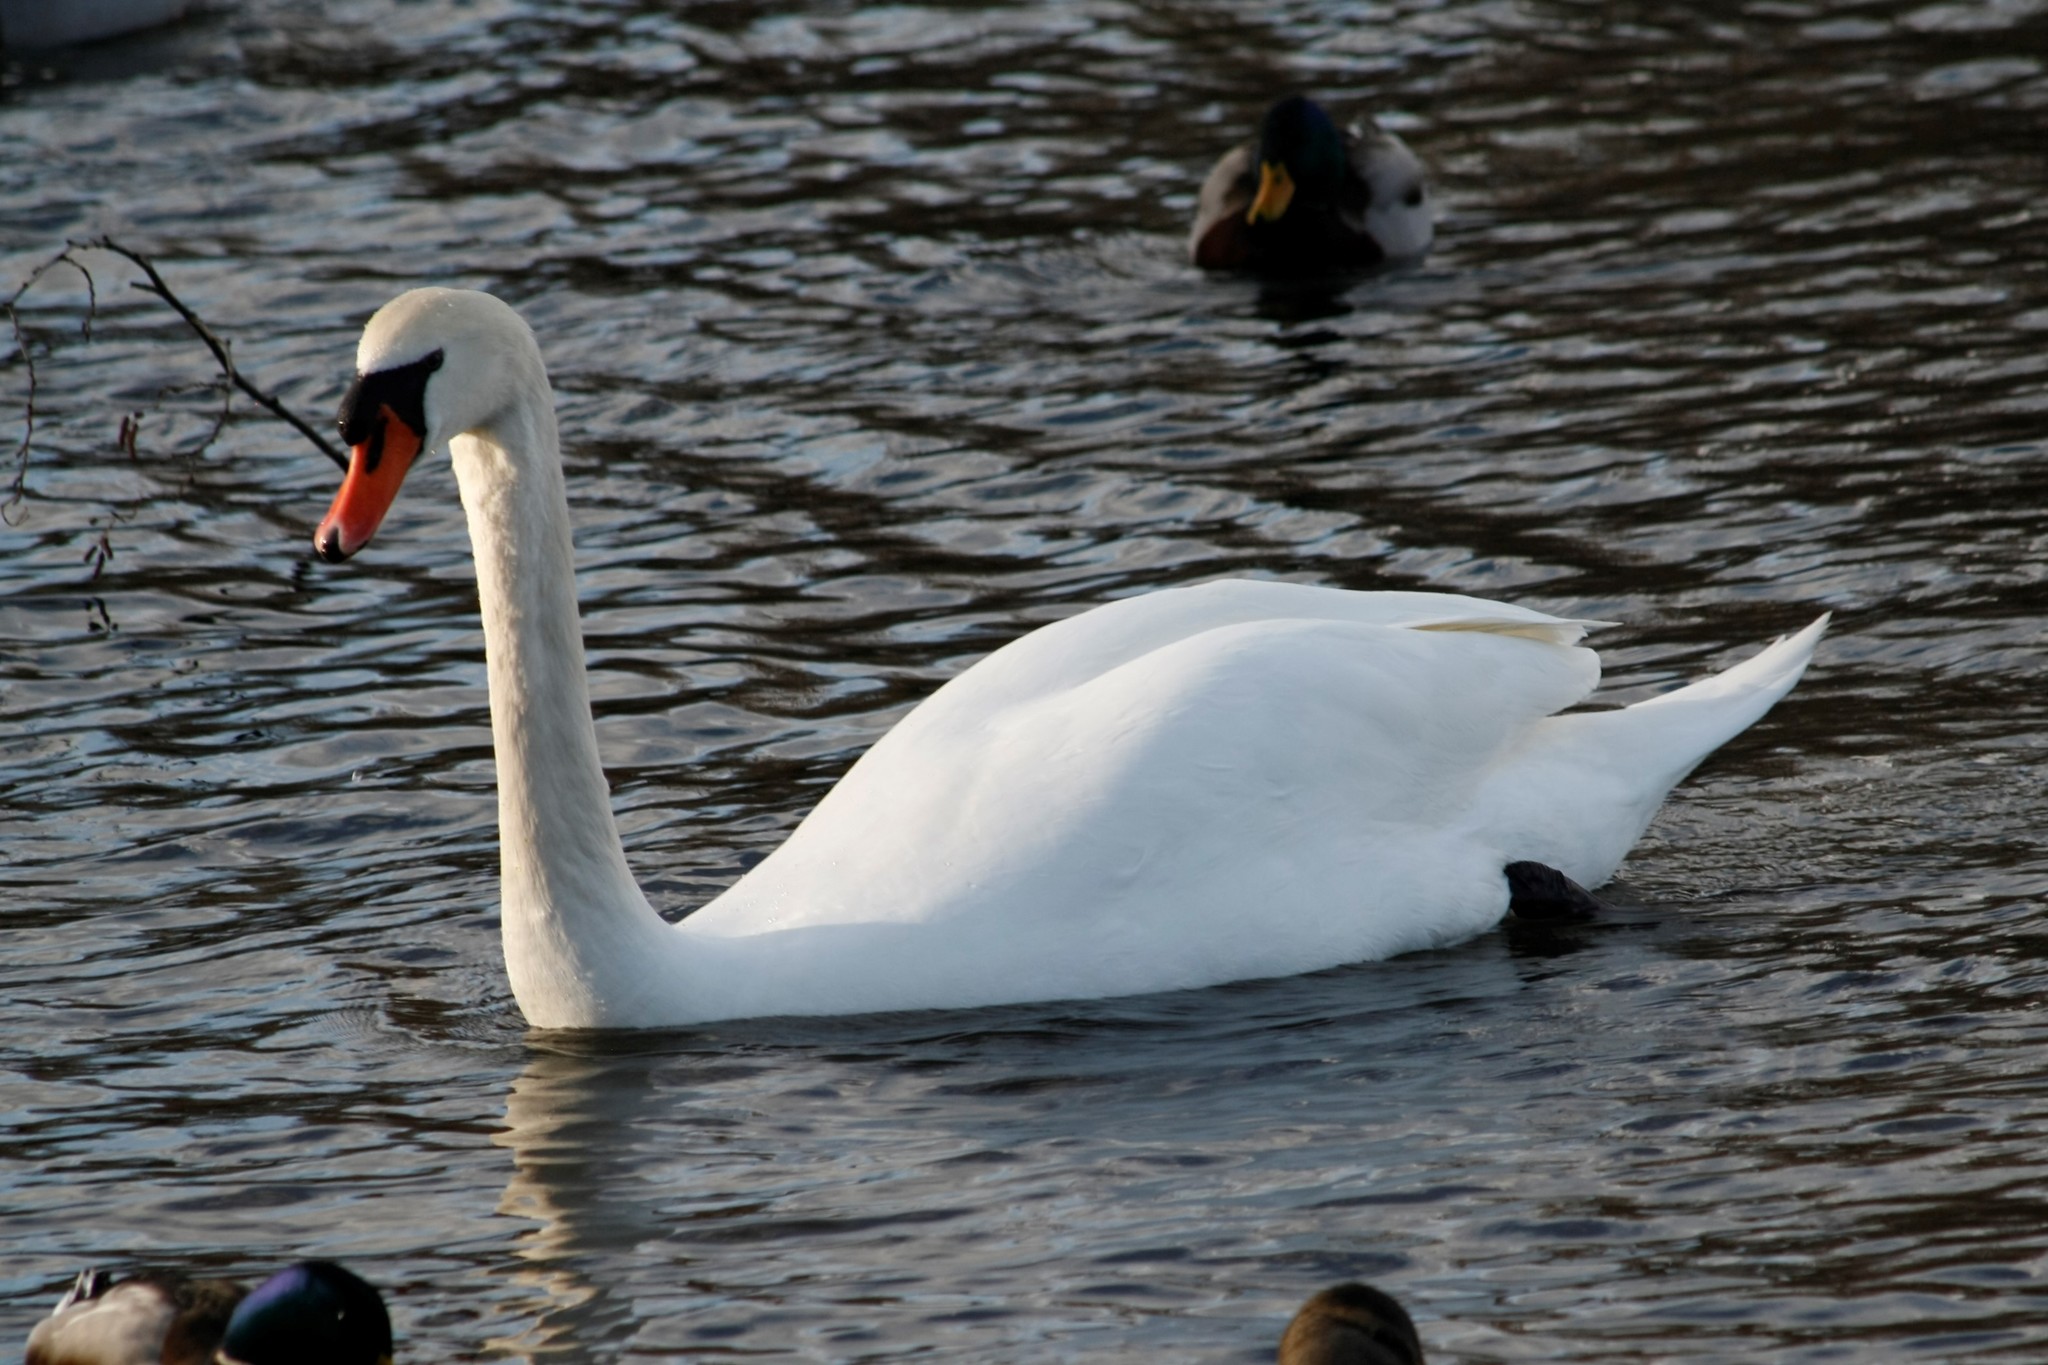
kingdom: Animalia
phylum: Chordata
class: Aves
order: Anseriformes
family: Anatidae
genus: Cygnus
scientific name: Cygnus olor
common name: Mute swan
